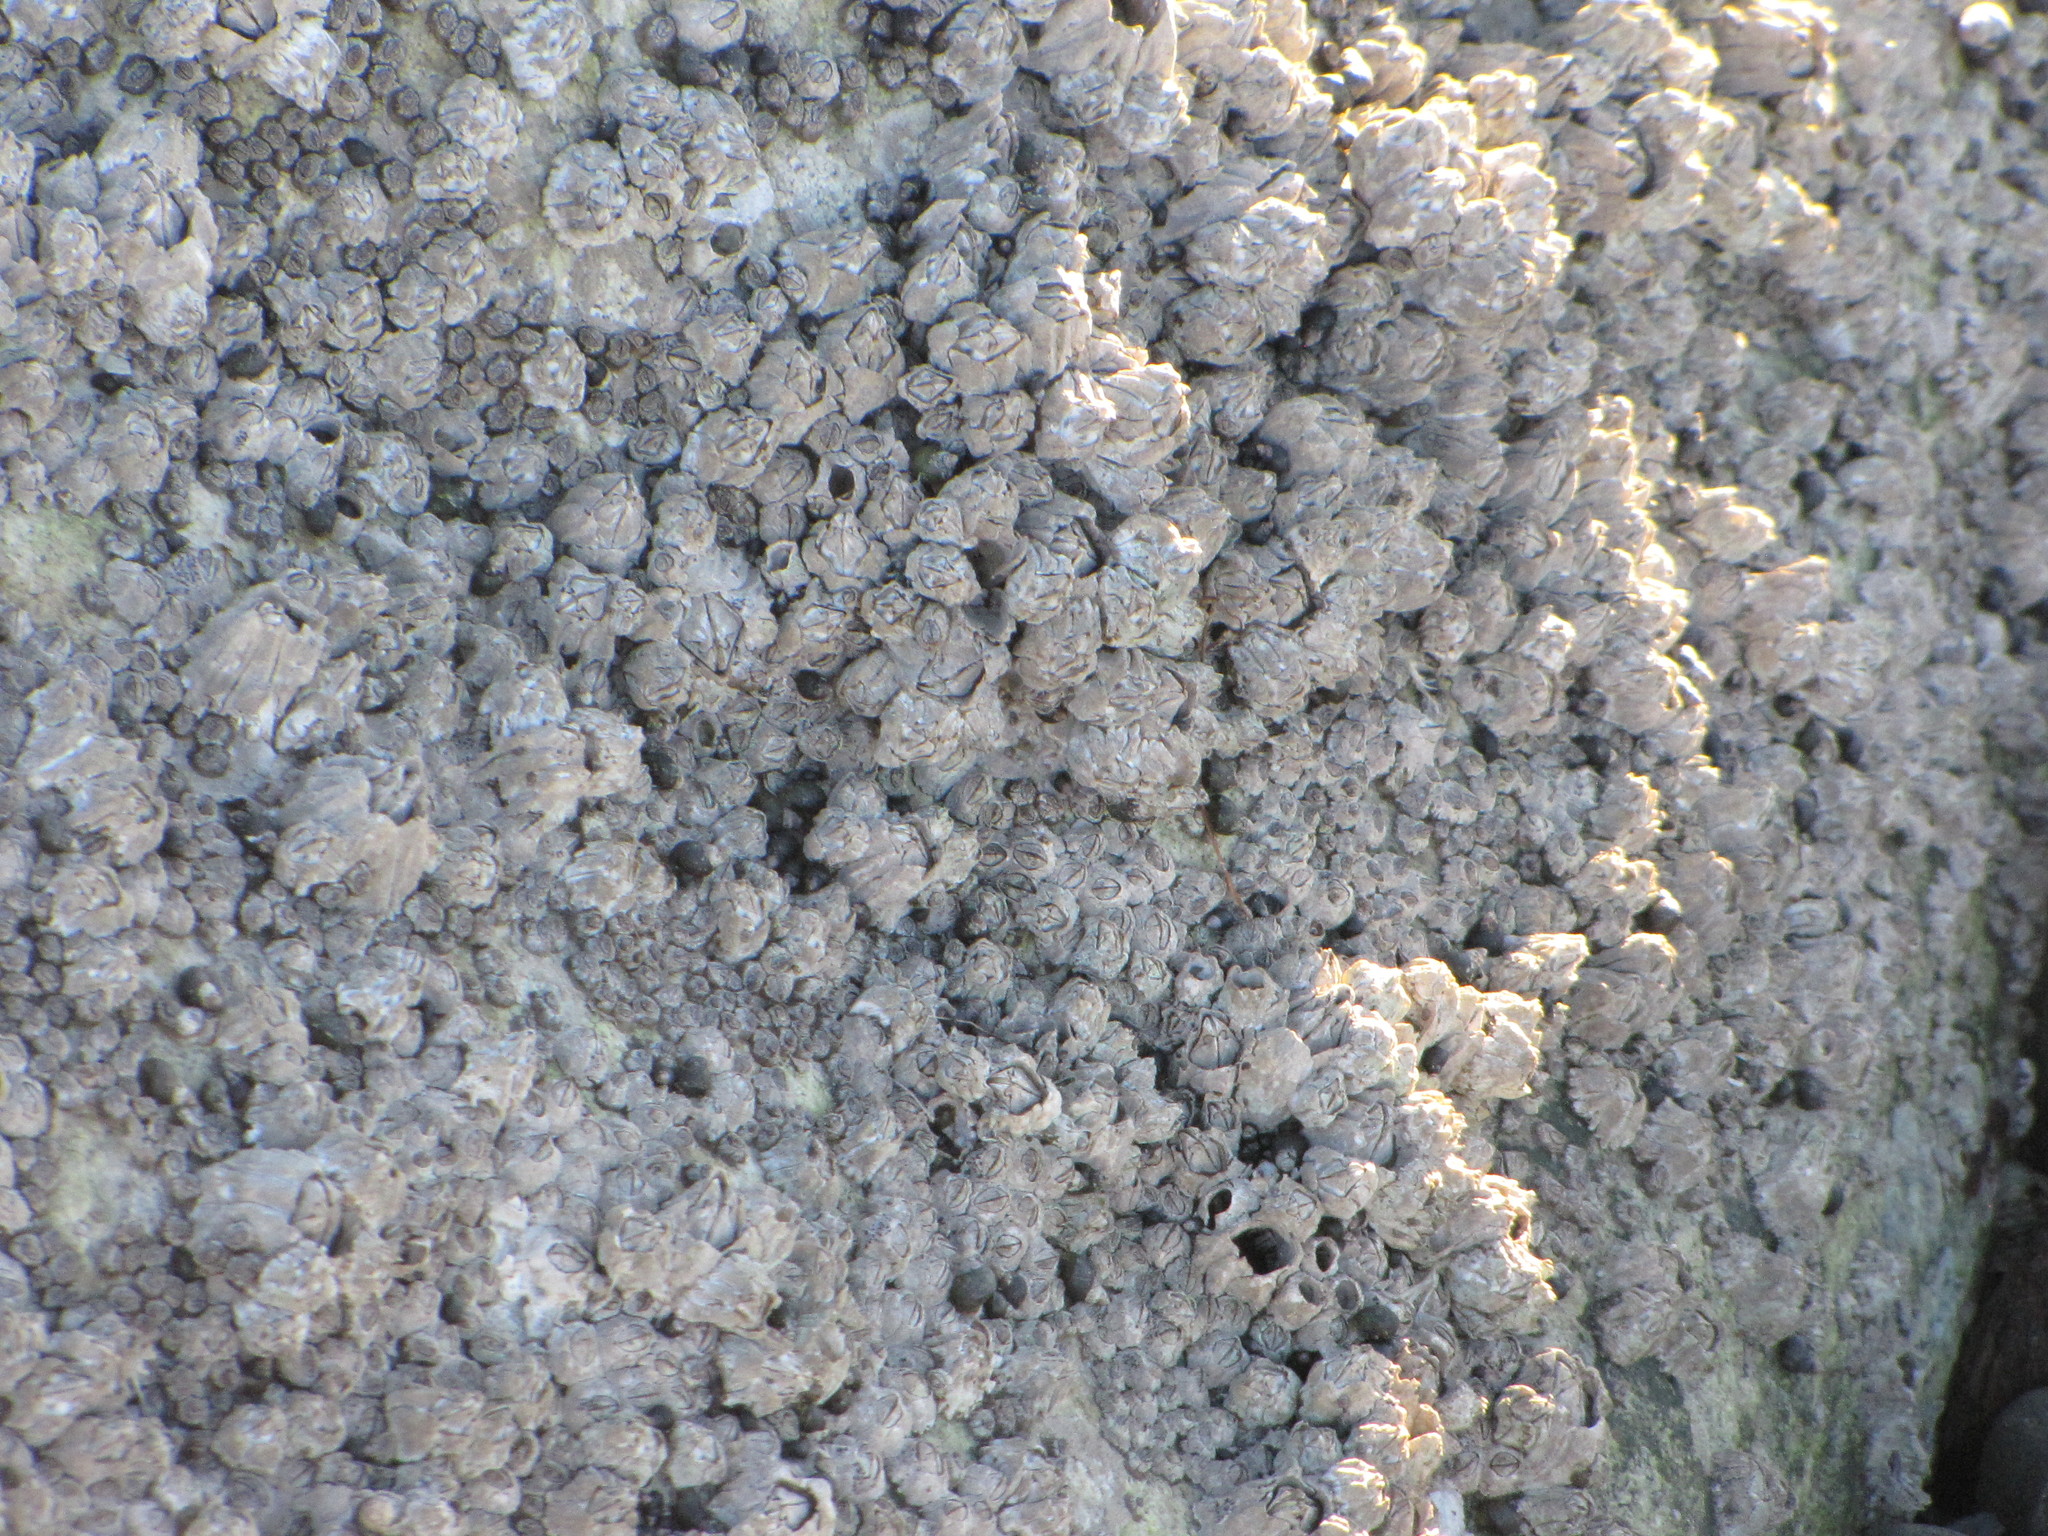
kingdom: Animalia
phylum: Arthropoda
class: Maxillopoda
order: Sessilia
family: Balanidae
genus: Balanus
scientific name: Balanus glandula
